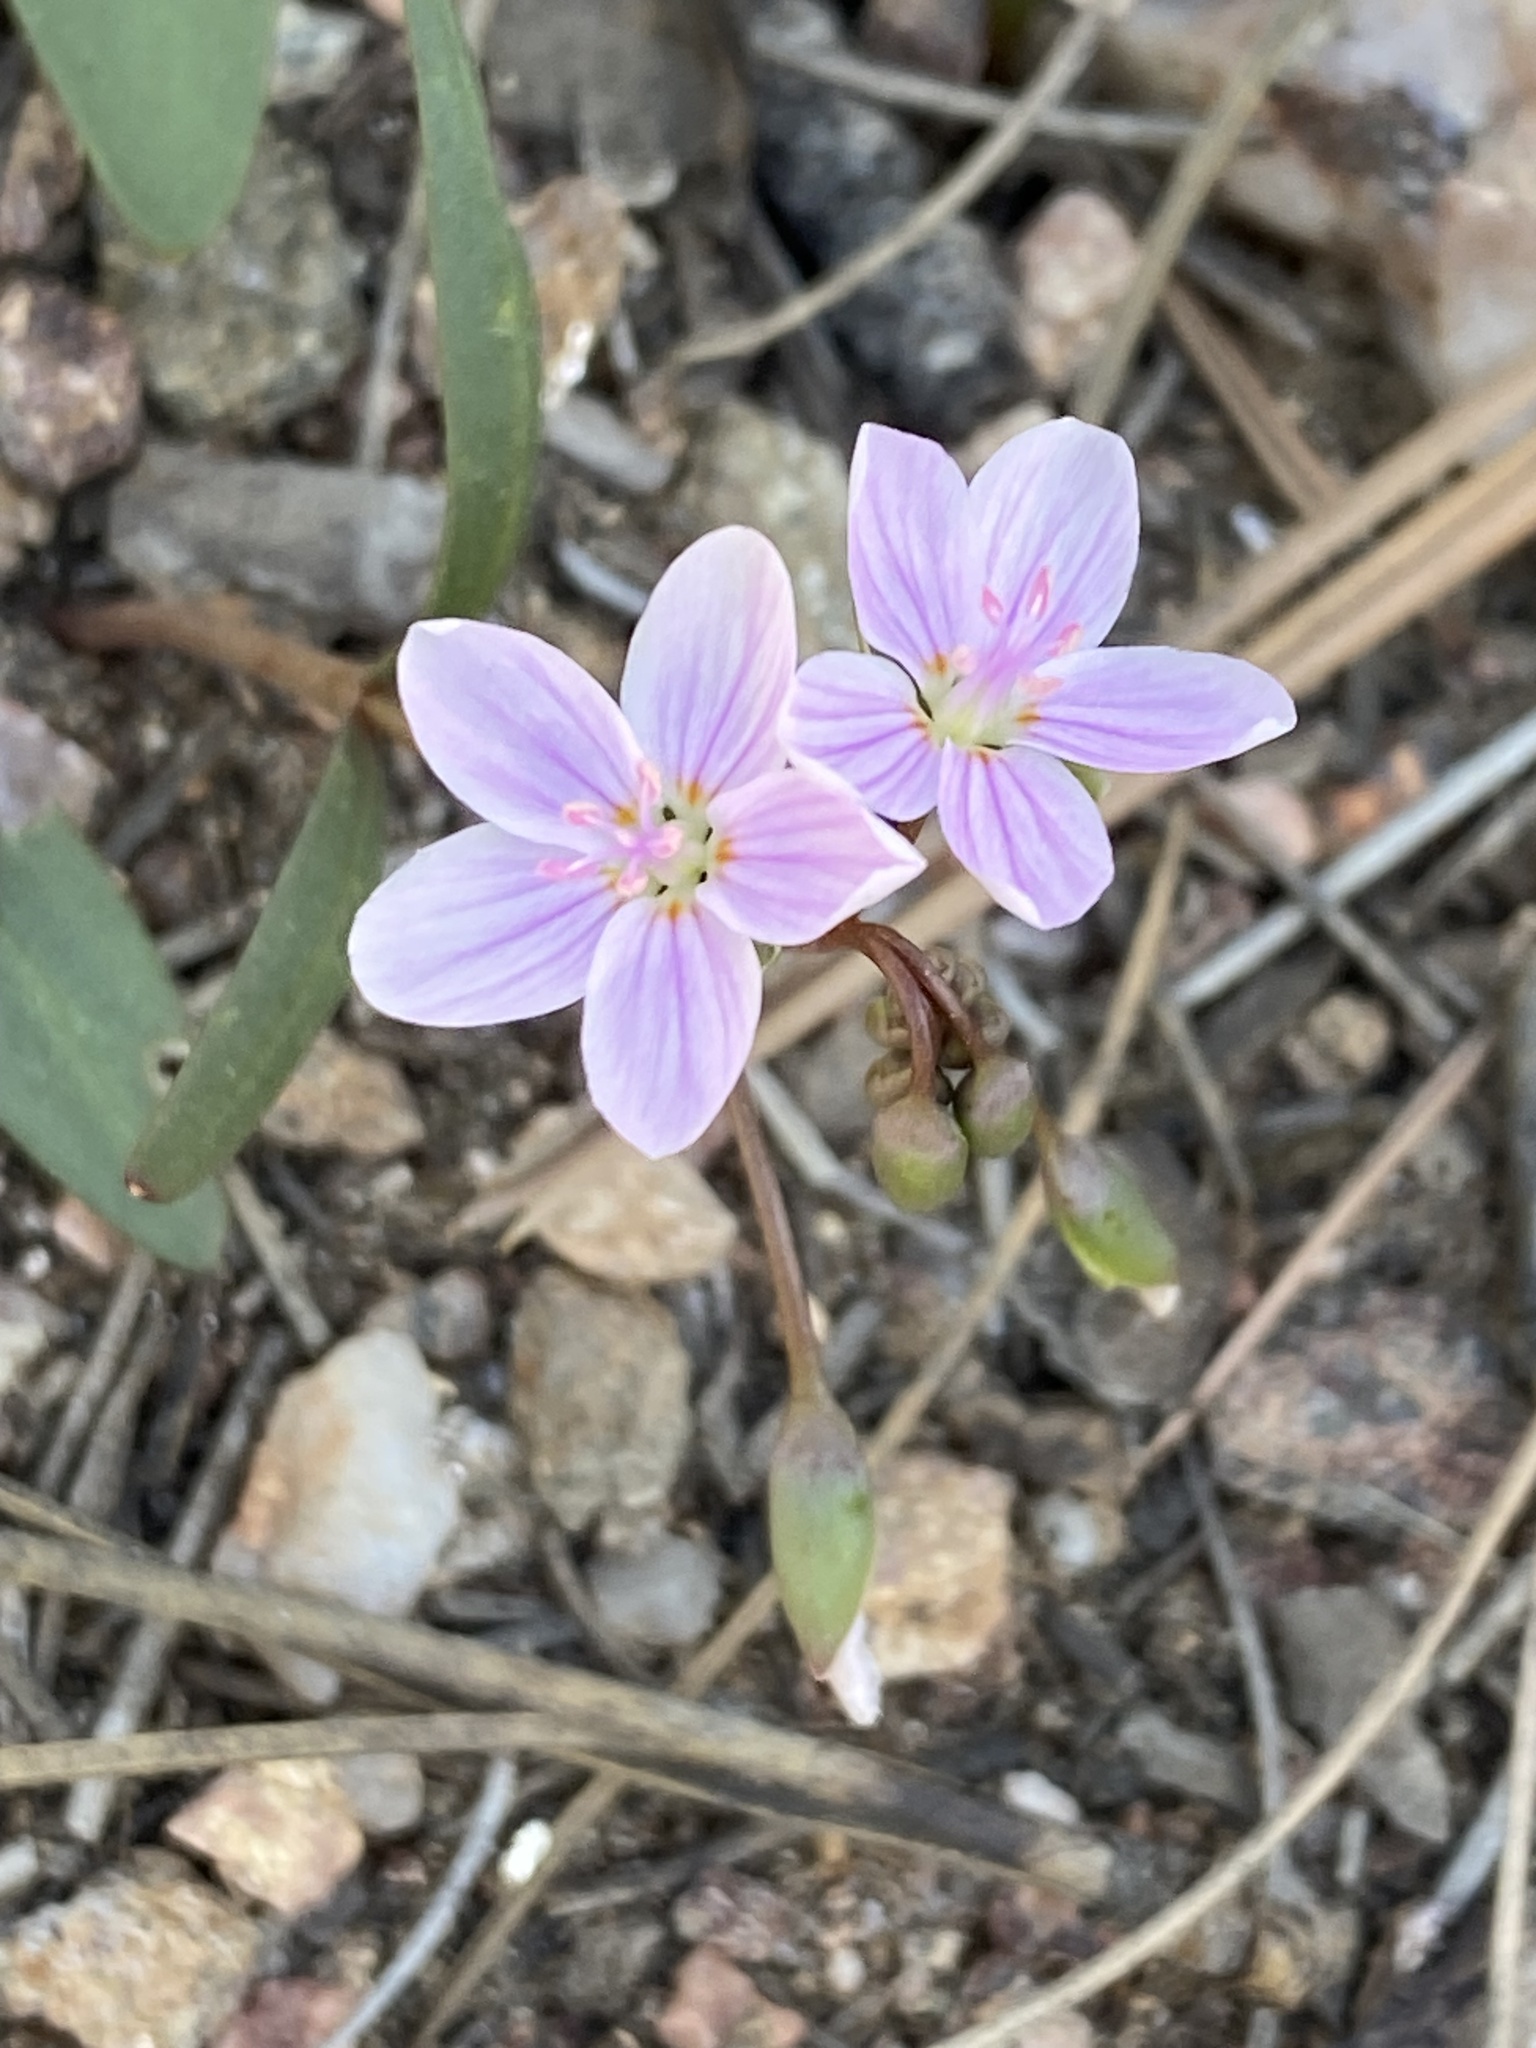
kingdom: Plantae
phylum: Tracheophyta
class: Magnoliopsida
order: Caryophyllales
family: Montiaceae
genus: Claytonia
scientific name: Claytonia rosea
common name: Rocky mountain spring-beauty
